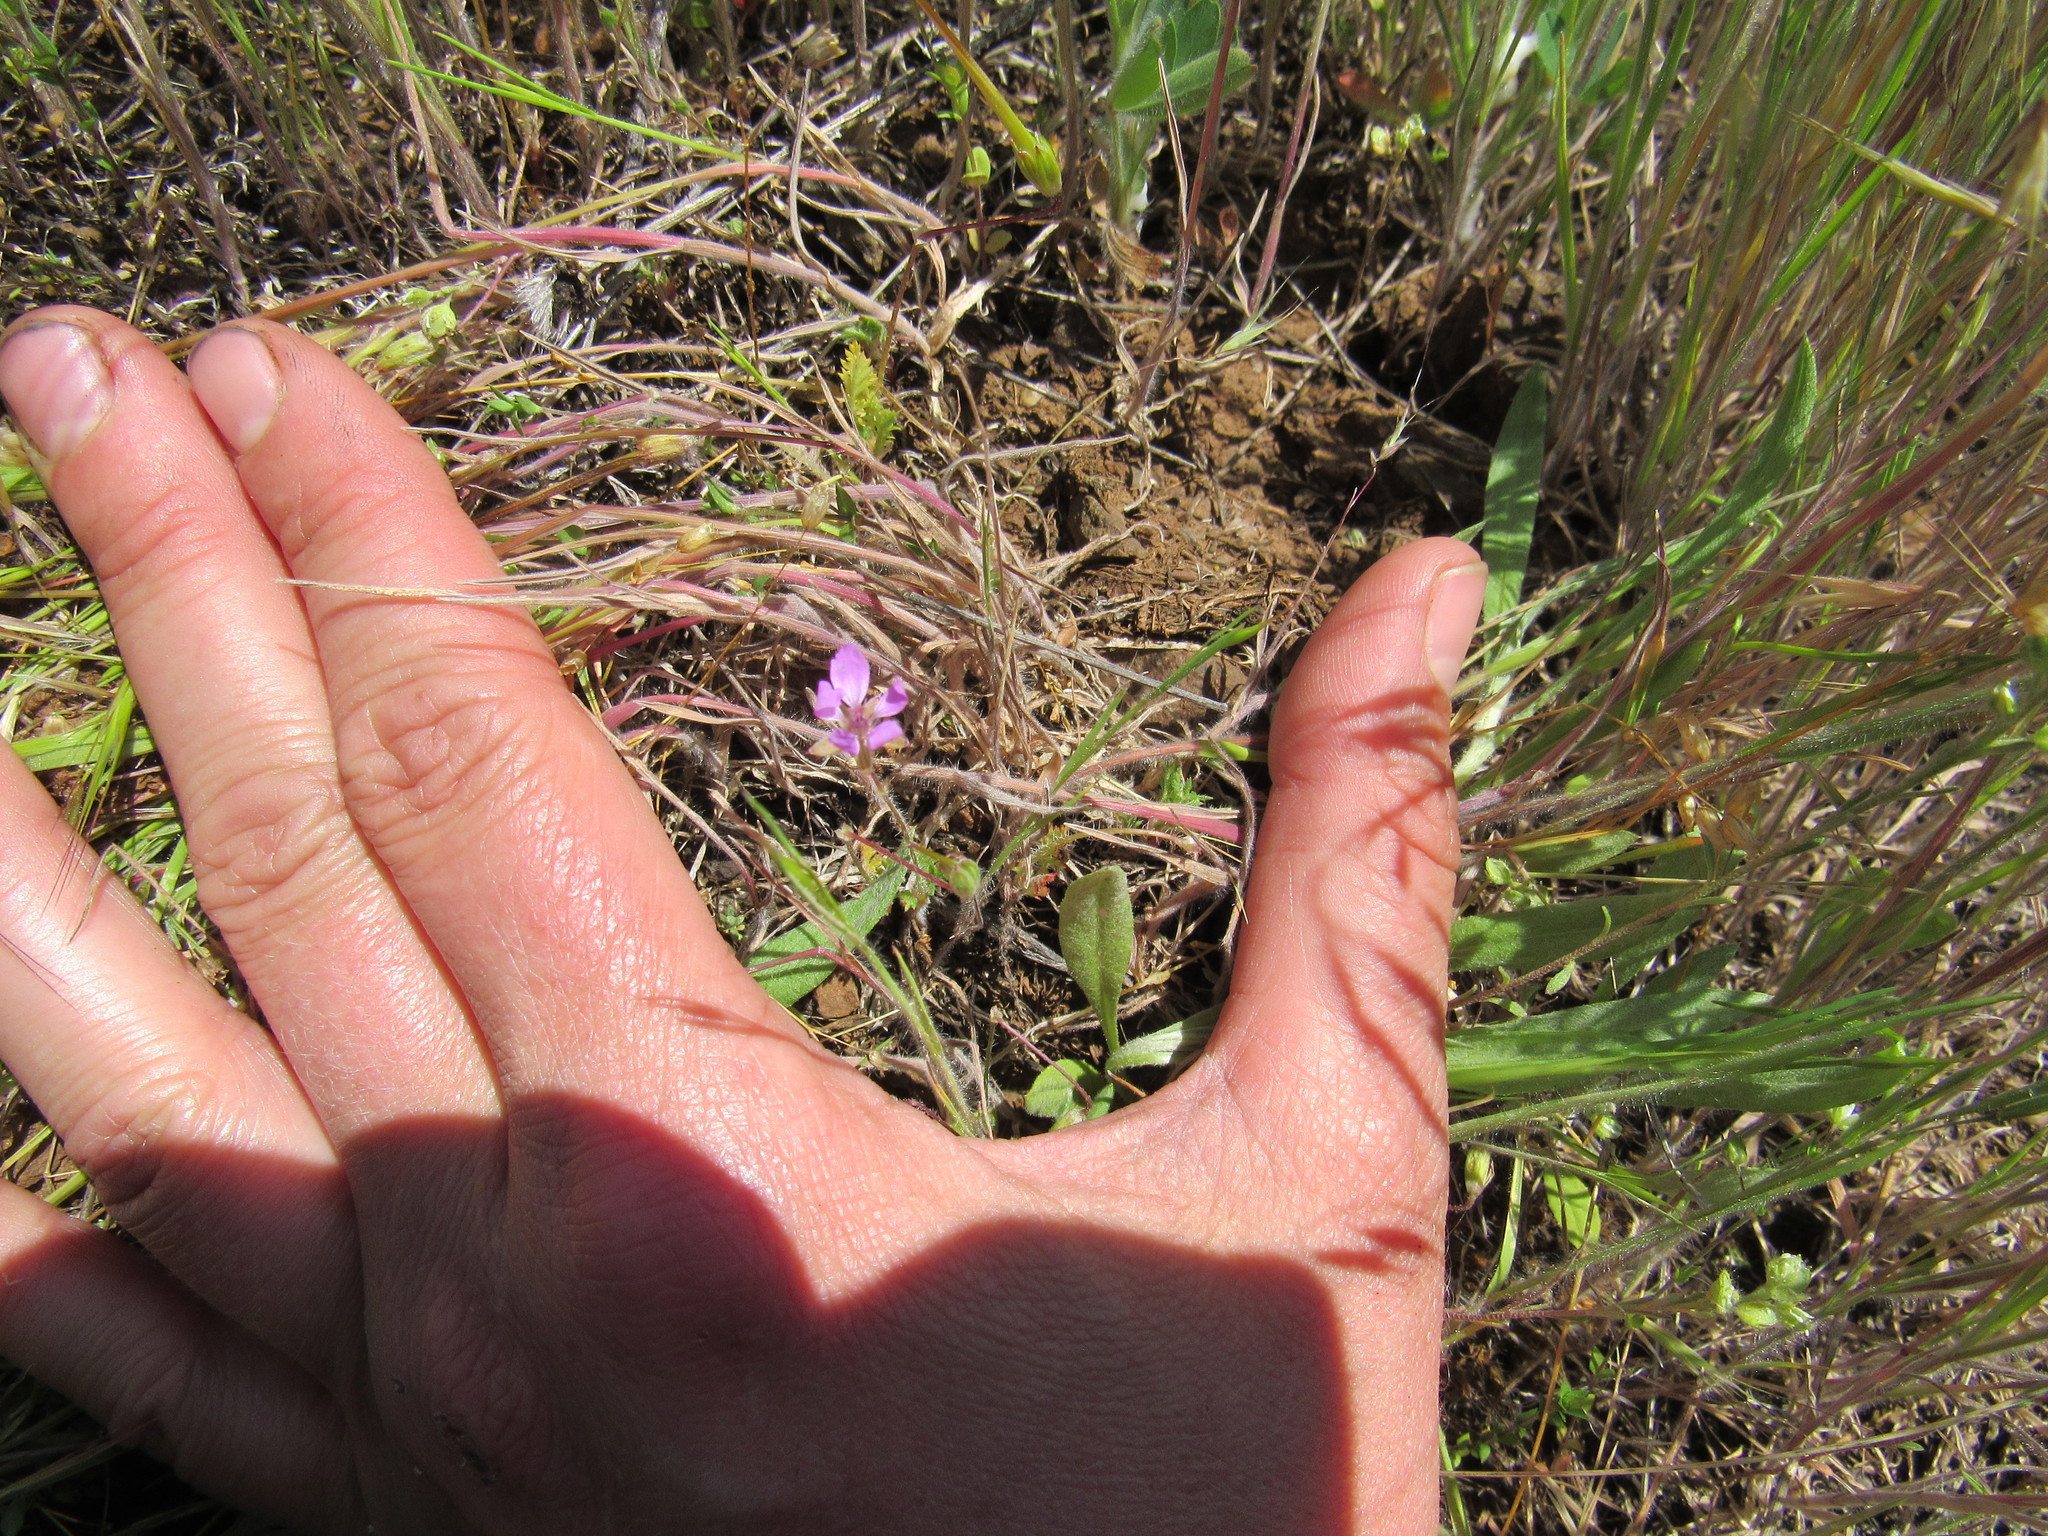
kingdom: Plantae
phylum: Tracheophyta
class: Magnoliopsida
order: Geraniales
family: Geraniaceae
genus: Erodium
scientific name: Erodium cicutarium
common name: Common stork's-bill
